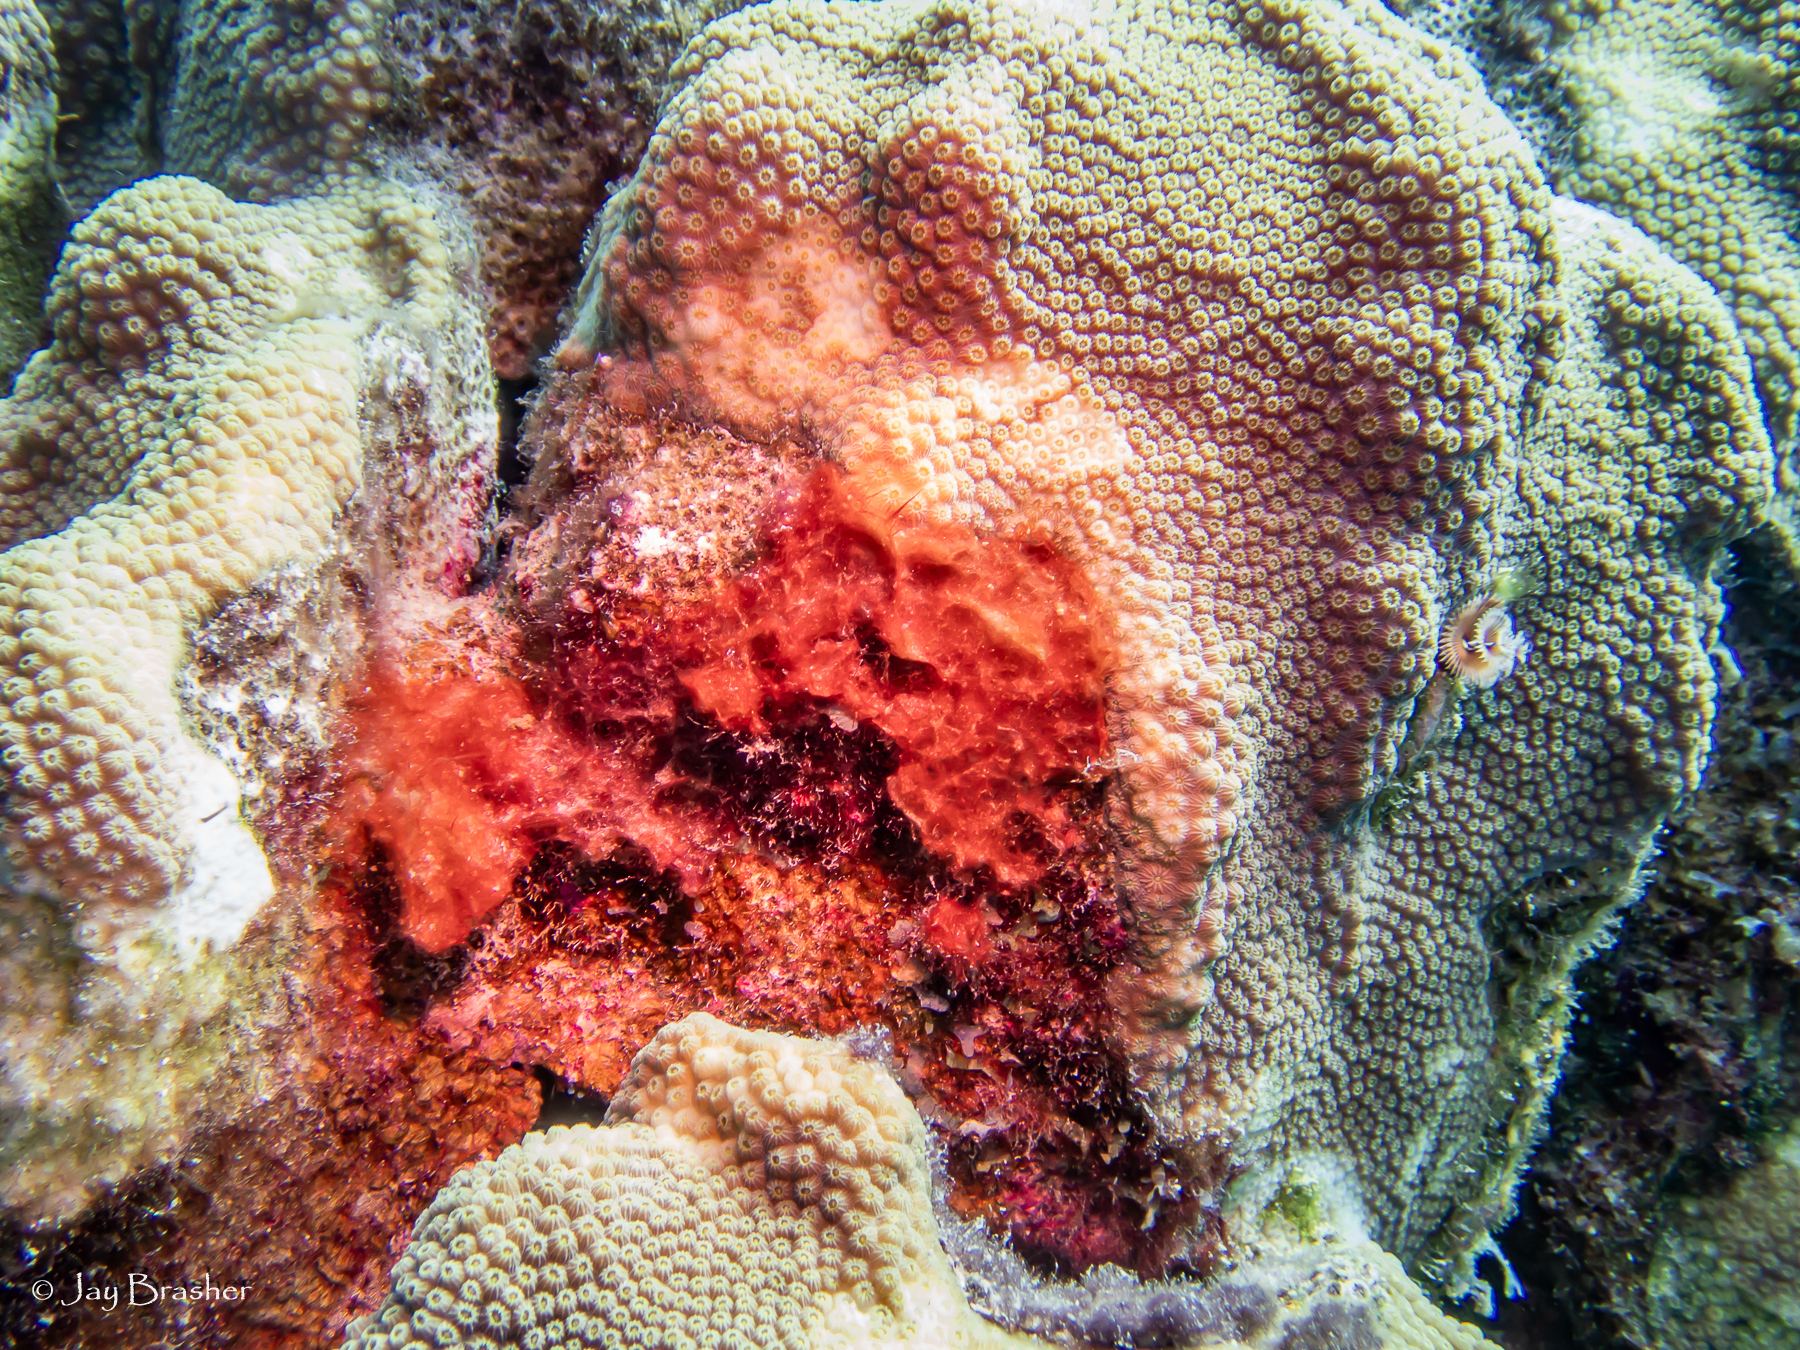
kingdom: Animalia
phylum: Cnidaria
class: Anthozoa
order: Scleractinia
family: Merulinidae
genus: Orbicella
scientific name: Orbicella faveolata
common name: Mountainous star coral
